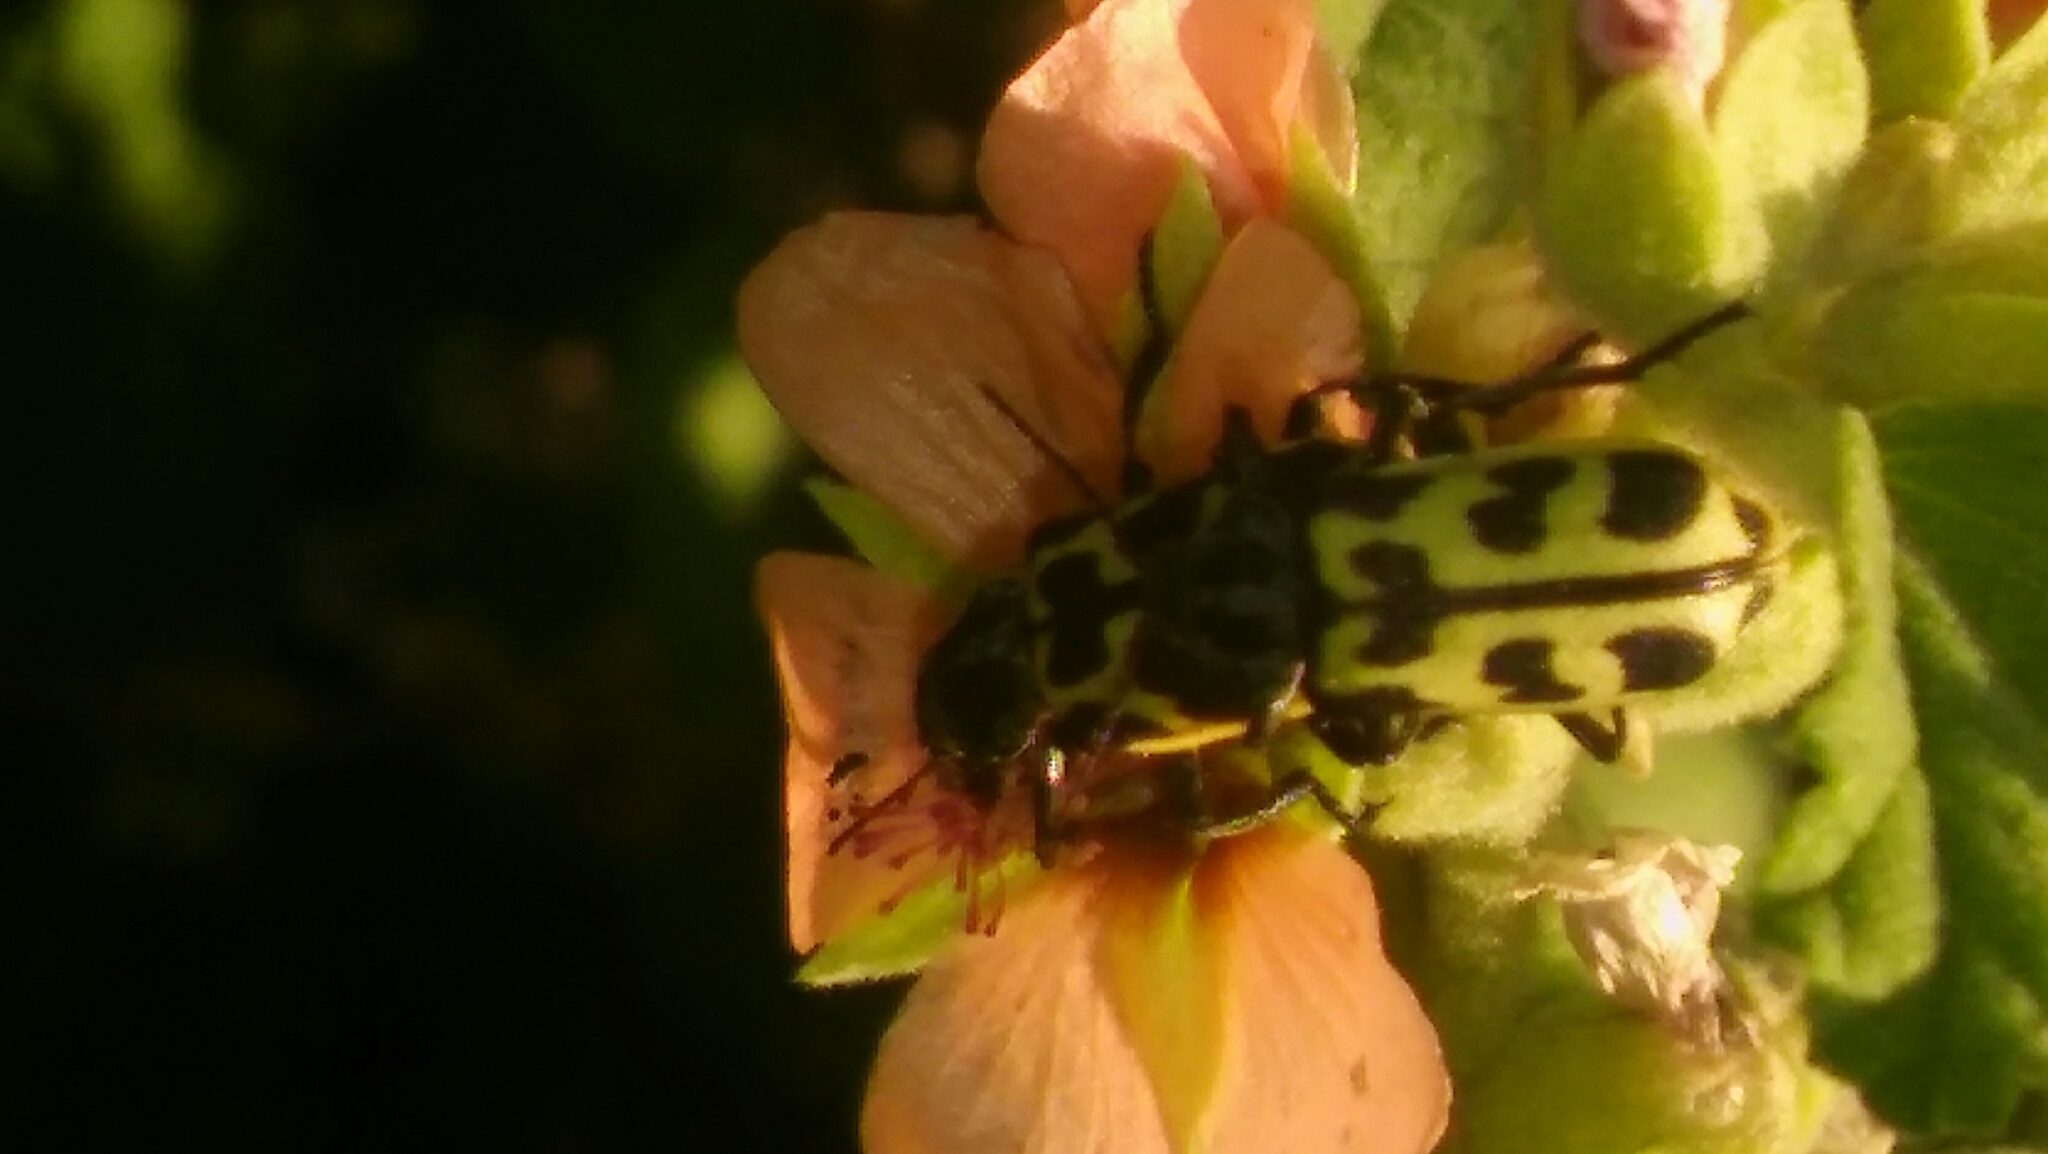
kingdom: Animalia
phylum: Arthropoda
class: Insecta
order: Coleoptera
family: Melyridae
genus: Astylus
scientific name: Astylus atromaculatus
